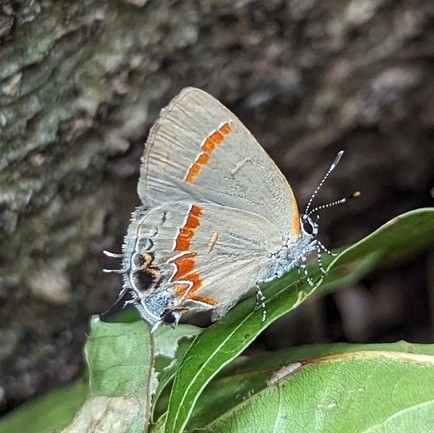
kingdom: Animalia
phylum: Arthropoda
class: Insecta
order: Lepidoptera
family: Lycaenidae
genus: Calycopis
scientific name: Calycopis cecrops
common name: Red-banded hairstreak
